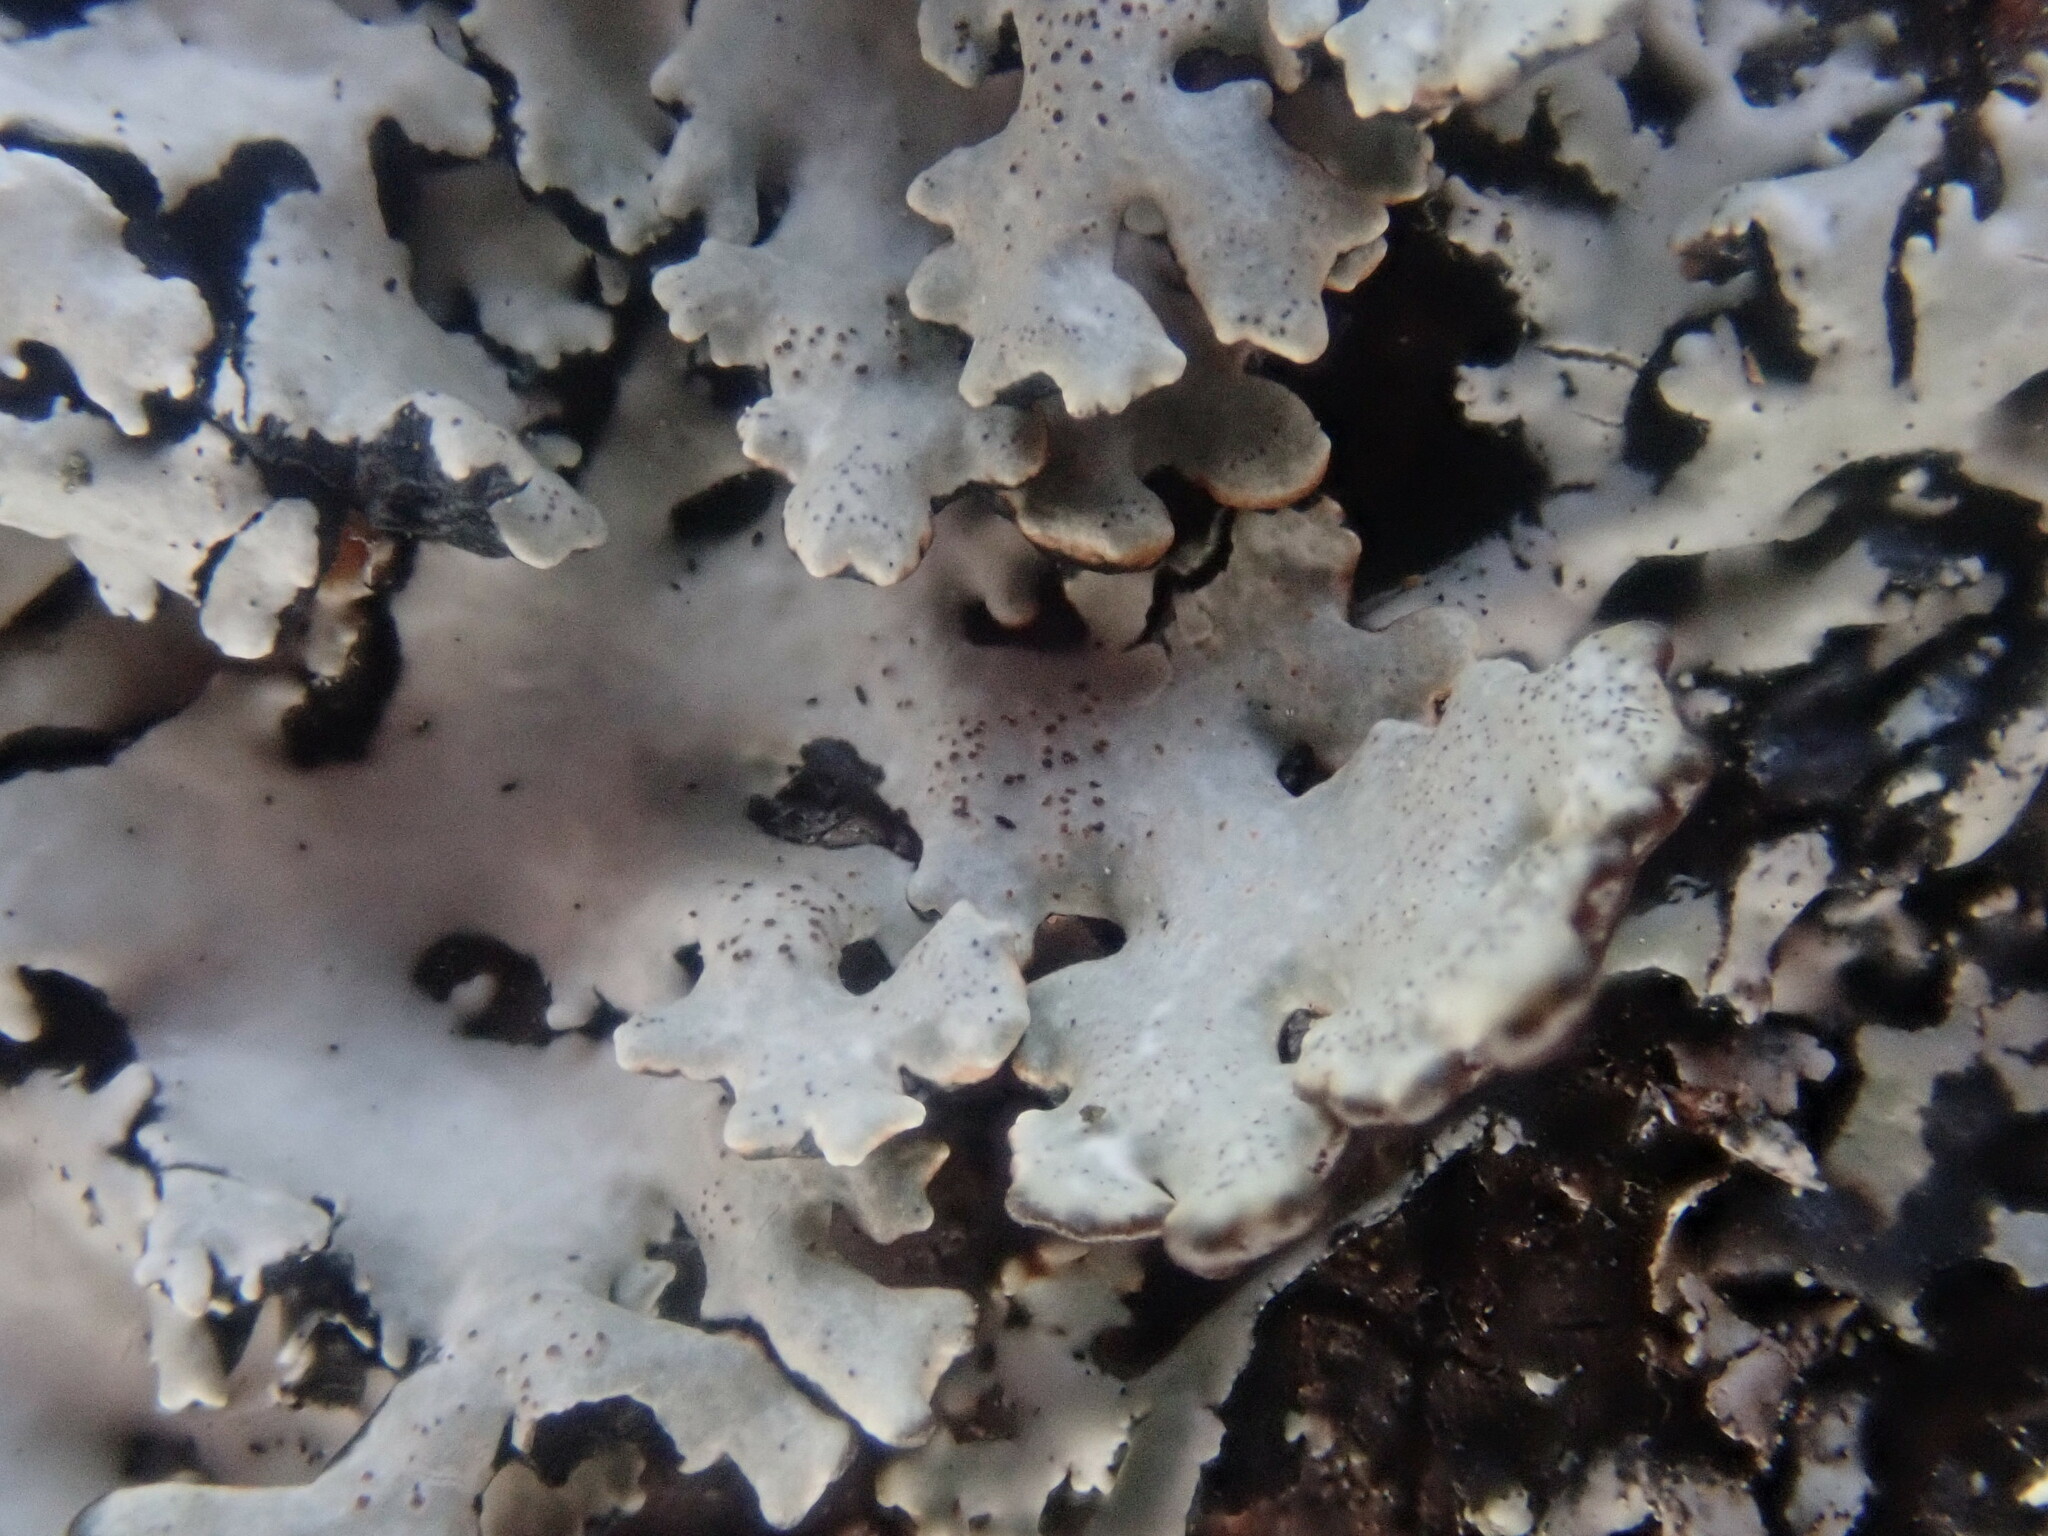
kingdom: Fungi
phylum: Ascomycota
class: Lecanoromycetes
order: Lecanorales
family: Parmeliaceae
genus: Hypogymnia
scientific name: Hypogymnia physodes
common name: Dark crottle
